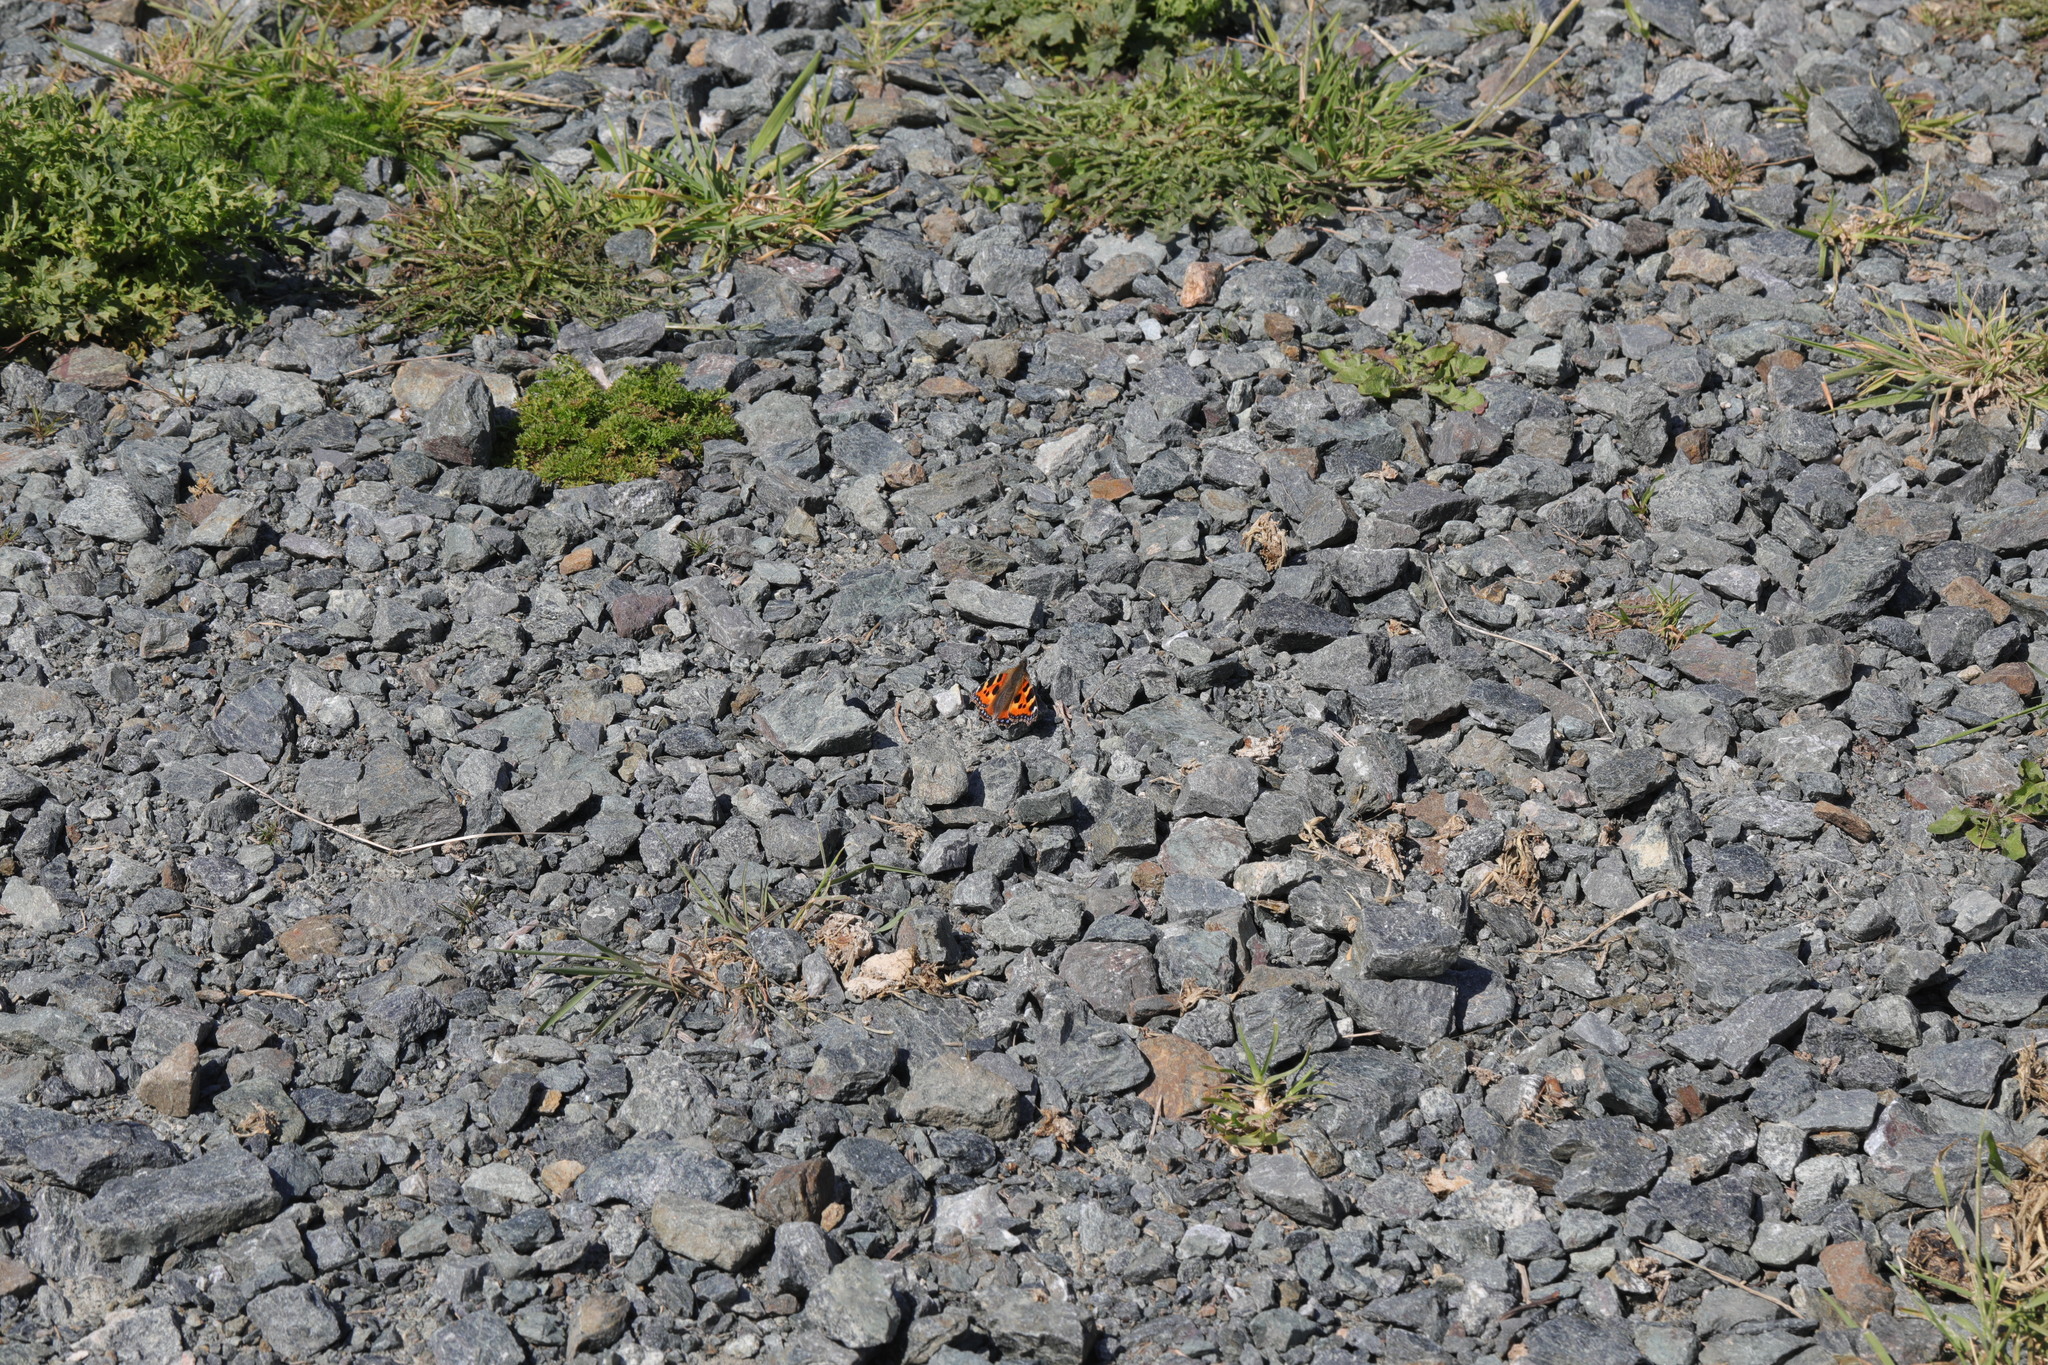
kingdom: Animalia
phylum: Arthropoda
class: Insecta
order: Lepidoptera
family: Nymphalidae
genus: Aglais
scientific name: Aglais urticae
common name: Small tortoiseshell
